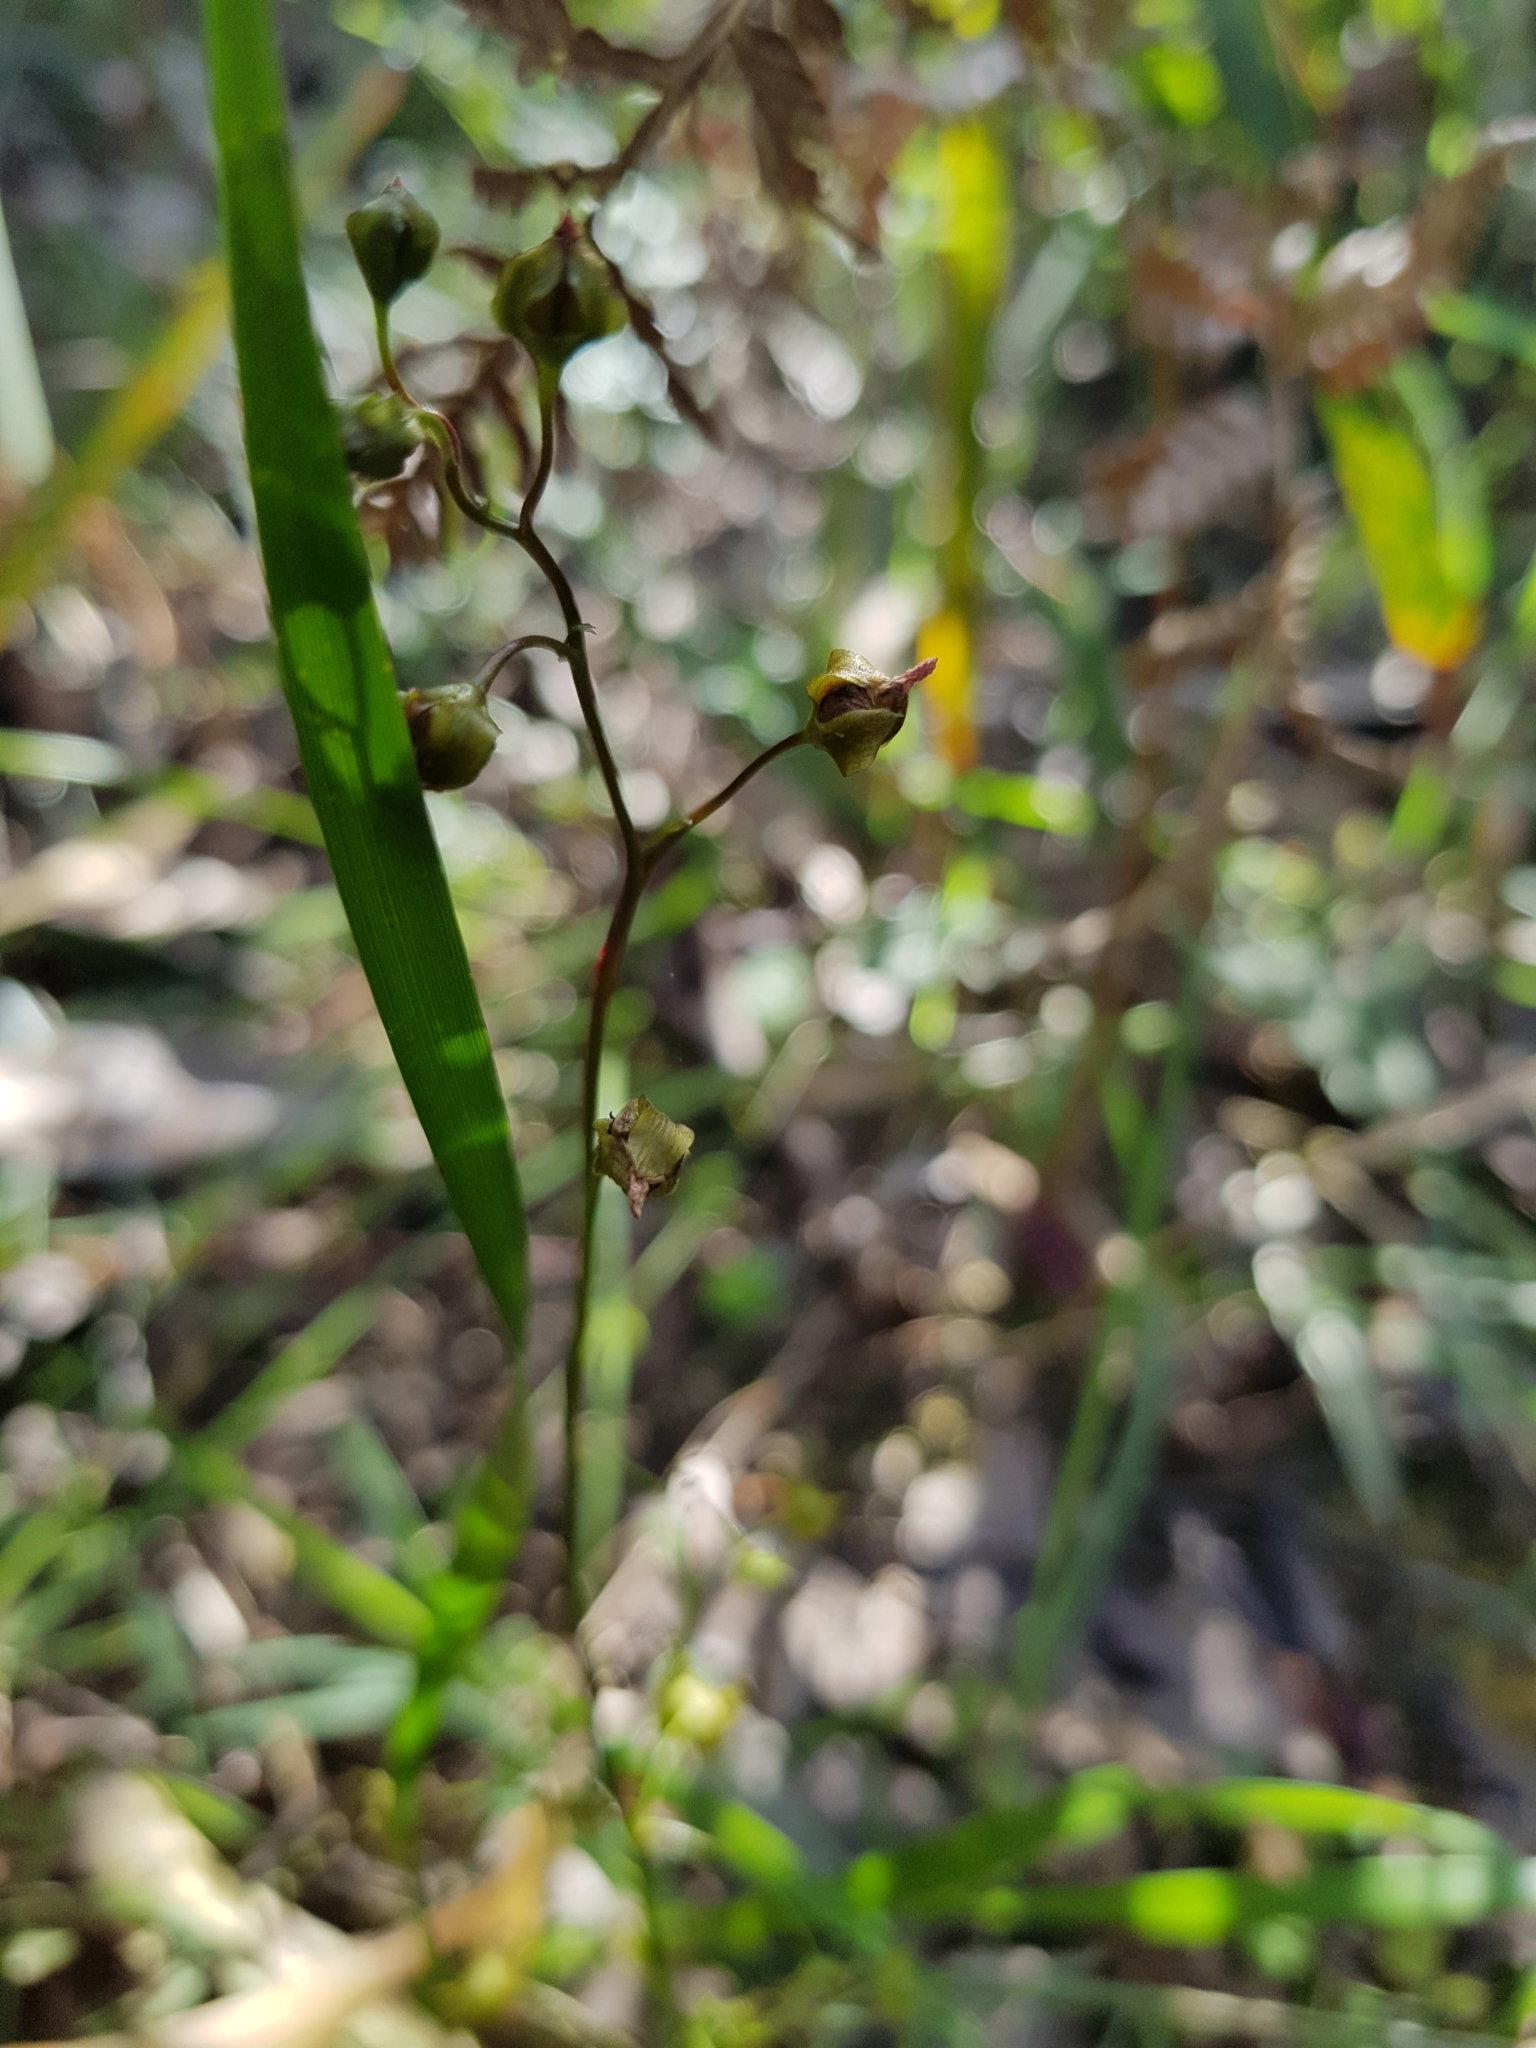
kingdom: Plantae
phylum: Tracheophyta
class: Magnoliopsida
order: Caryophyllales
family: Droseraceae
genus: Drosera
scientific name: Drosera peltata
